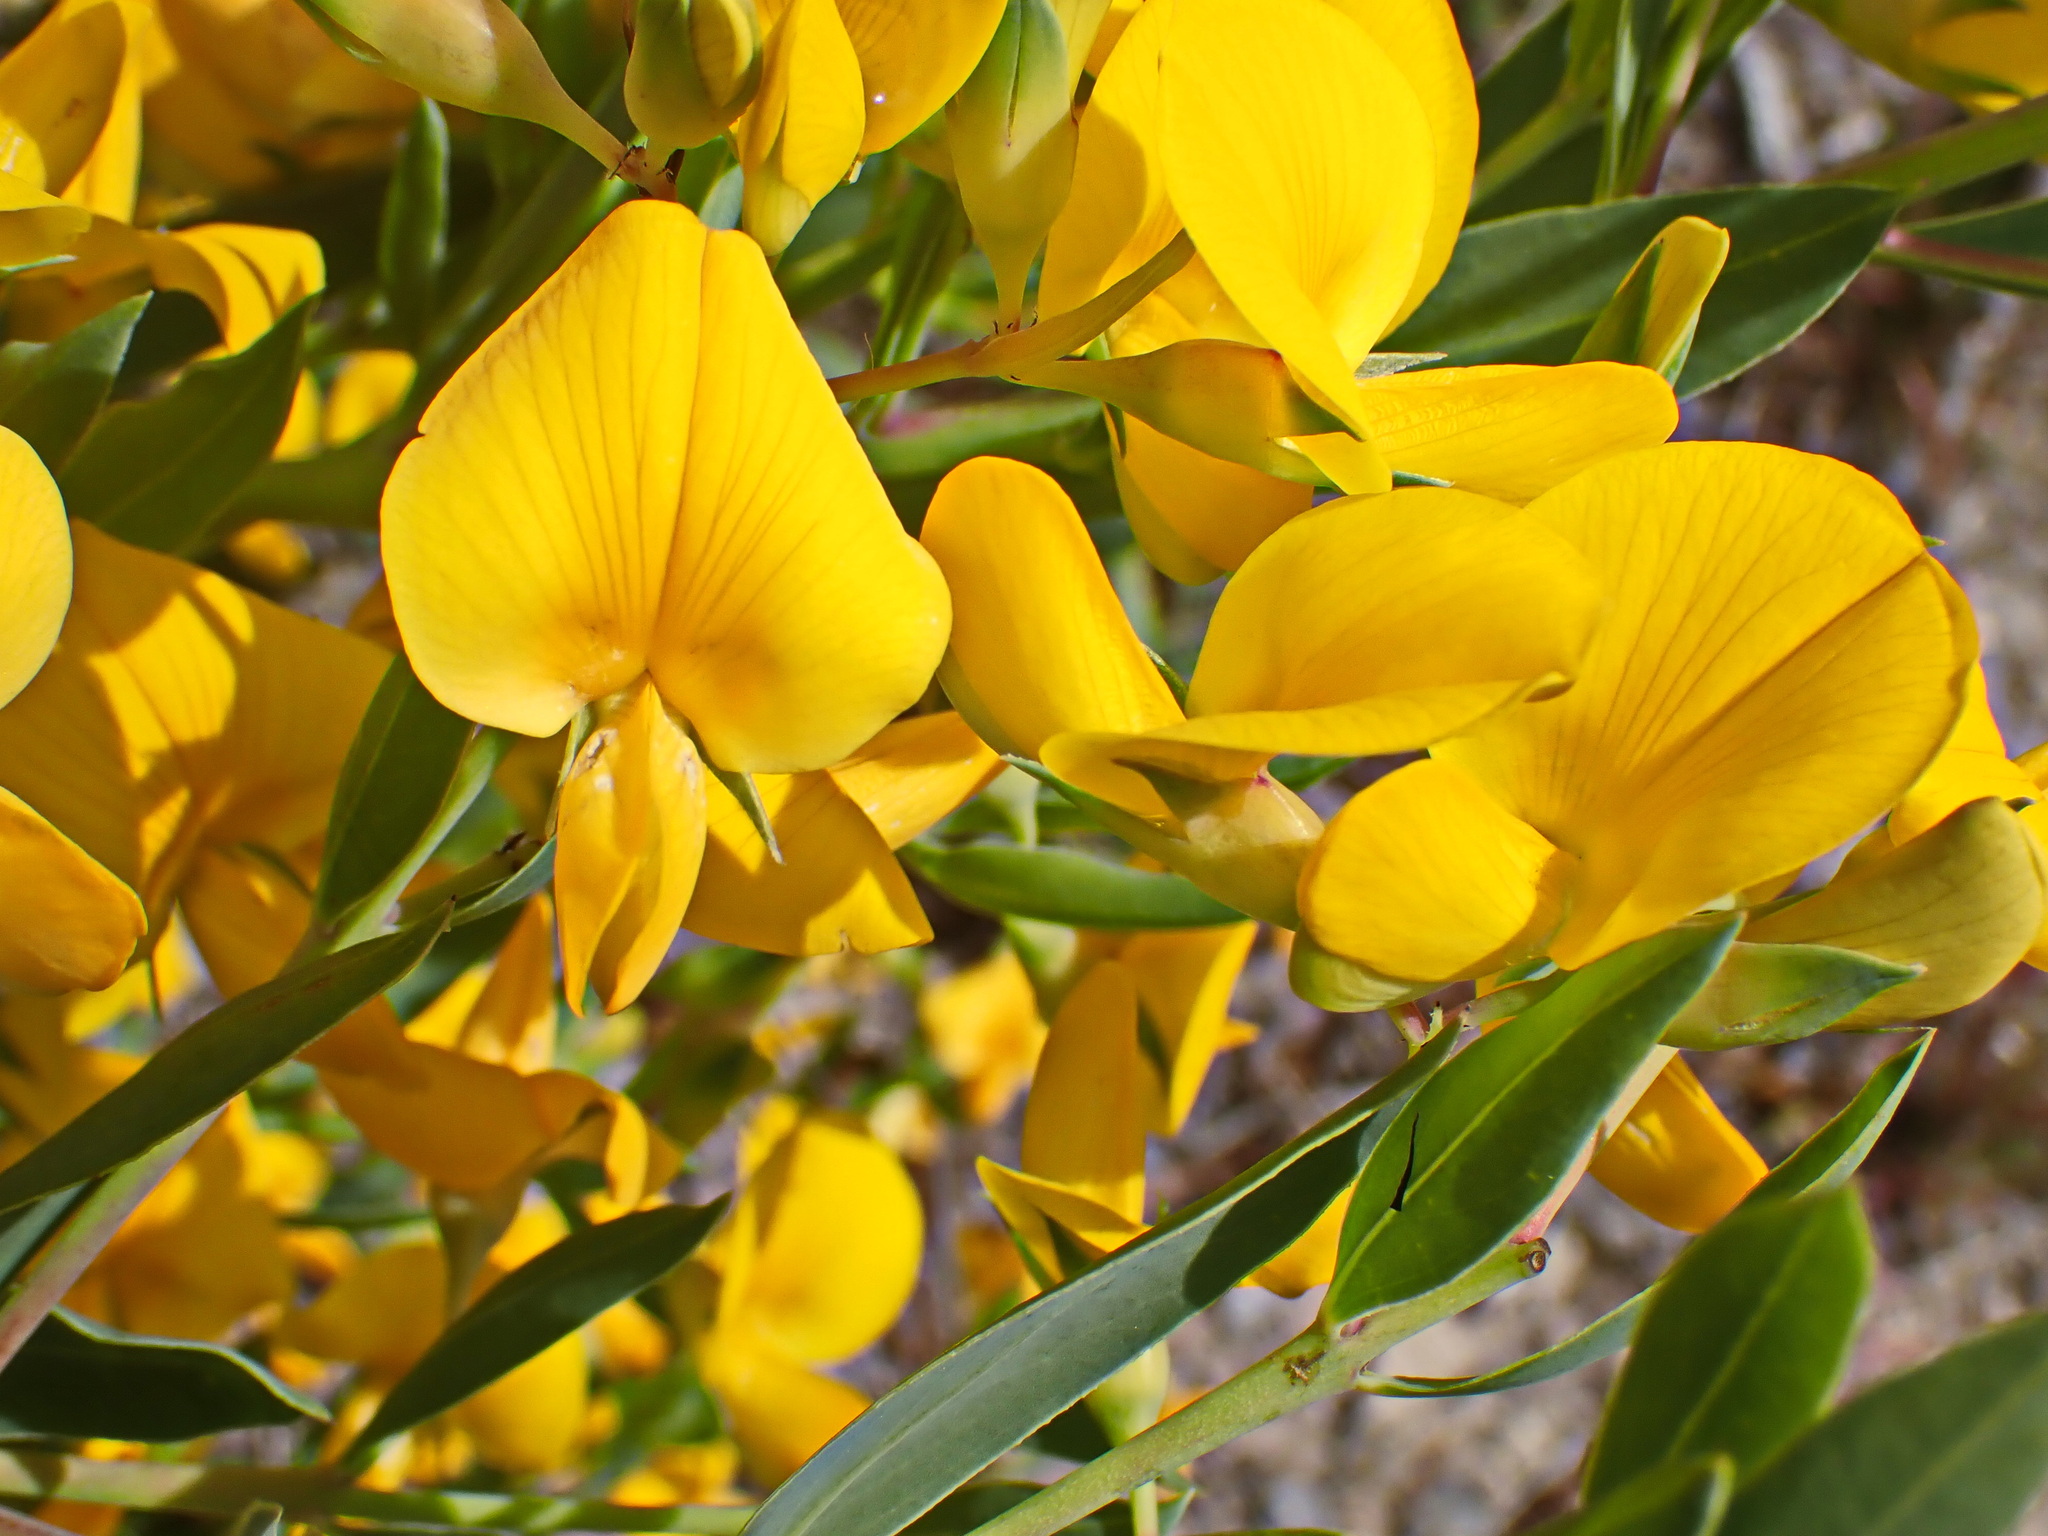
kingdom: Plantae
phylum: Tracheophyta
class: Magnoliopsida
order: Fabales
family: Fabaceae
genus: Rafnia
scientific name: Rafnia racemosa
